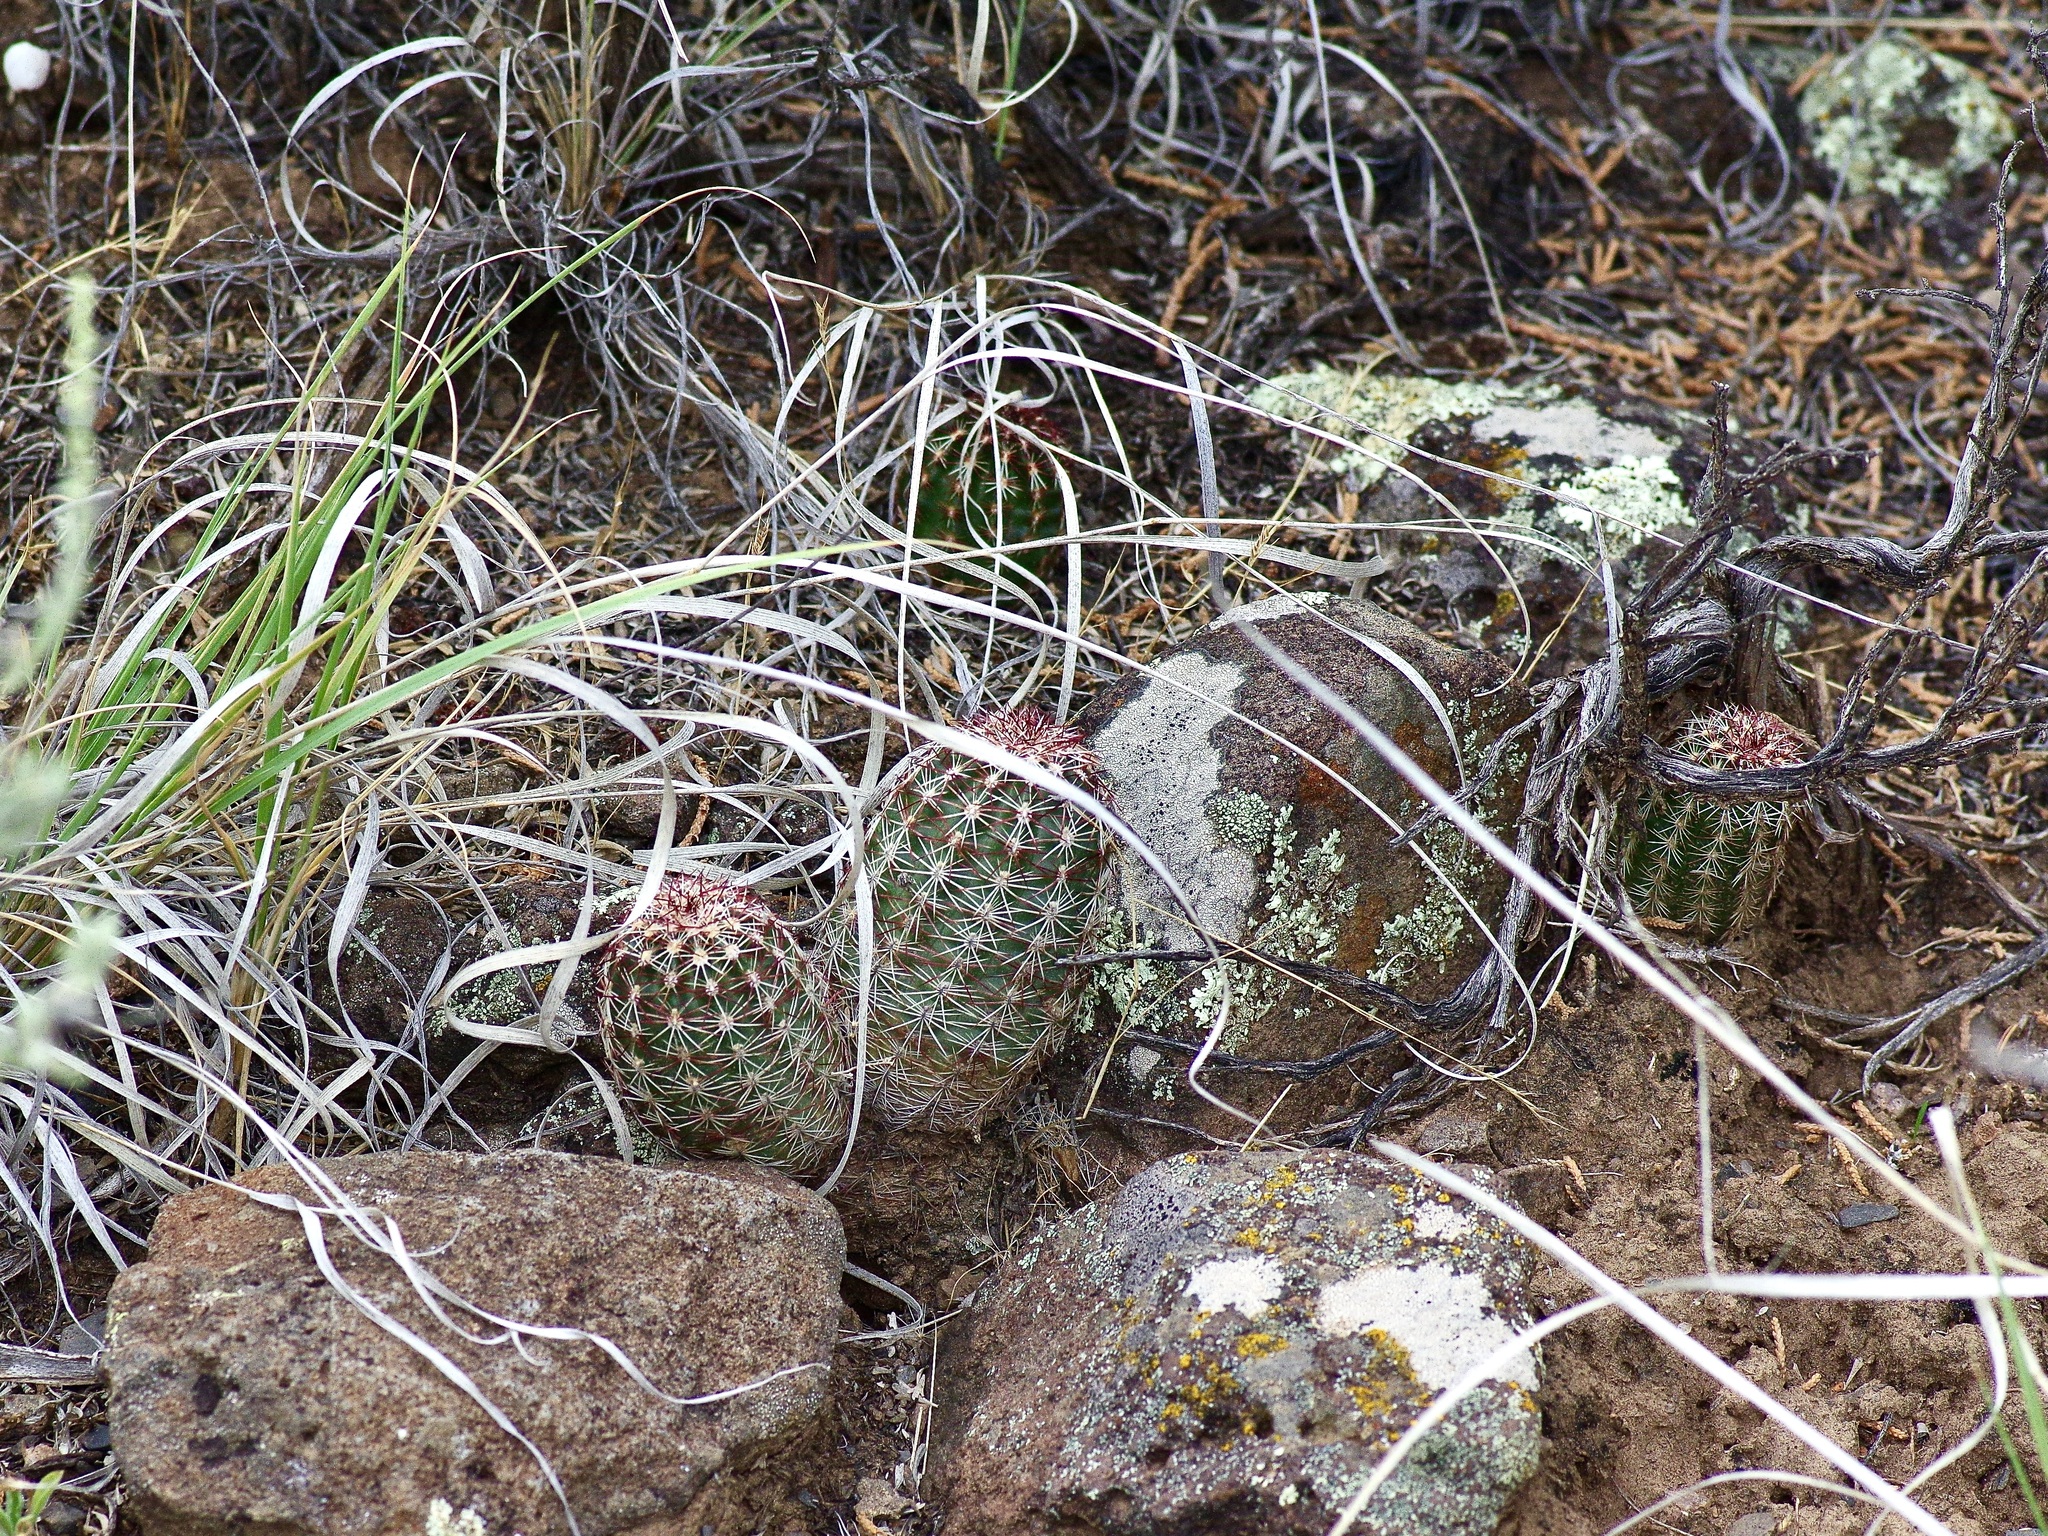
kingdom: Plantae
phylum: Tracheophyta
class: Magnoliopsida
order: Caryophyllales
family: Cactaceae
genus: Echinocereus
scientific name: Echinocereus viridiflorus
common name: Nylon hedgehog cactus
